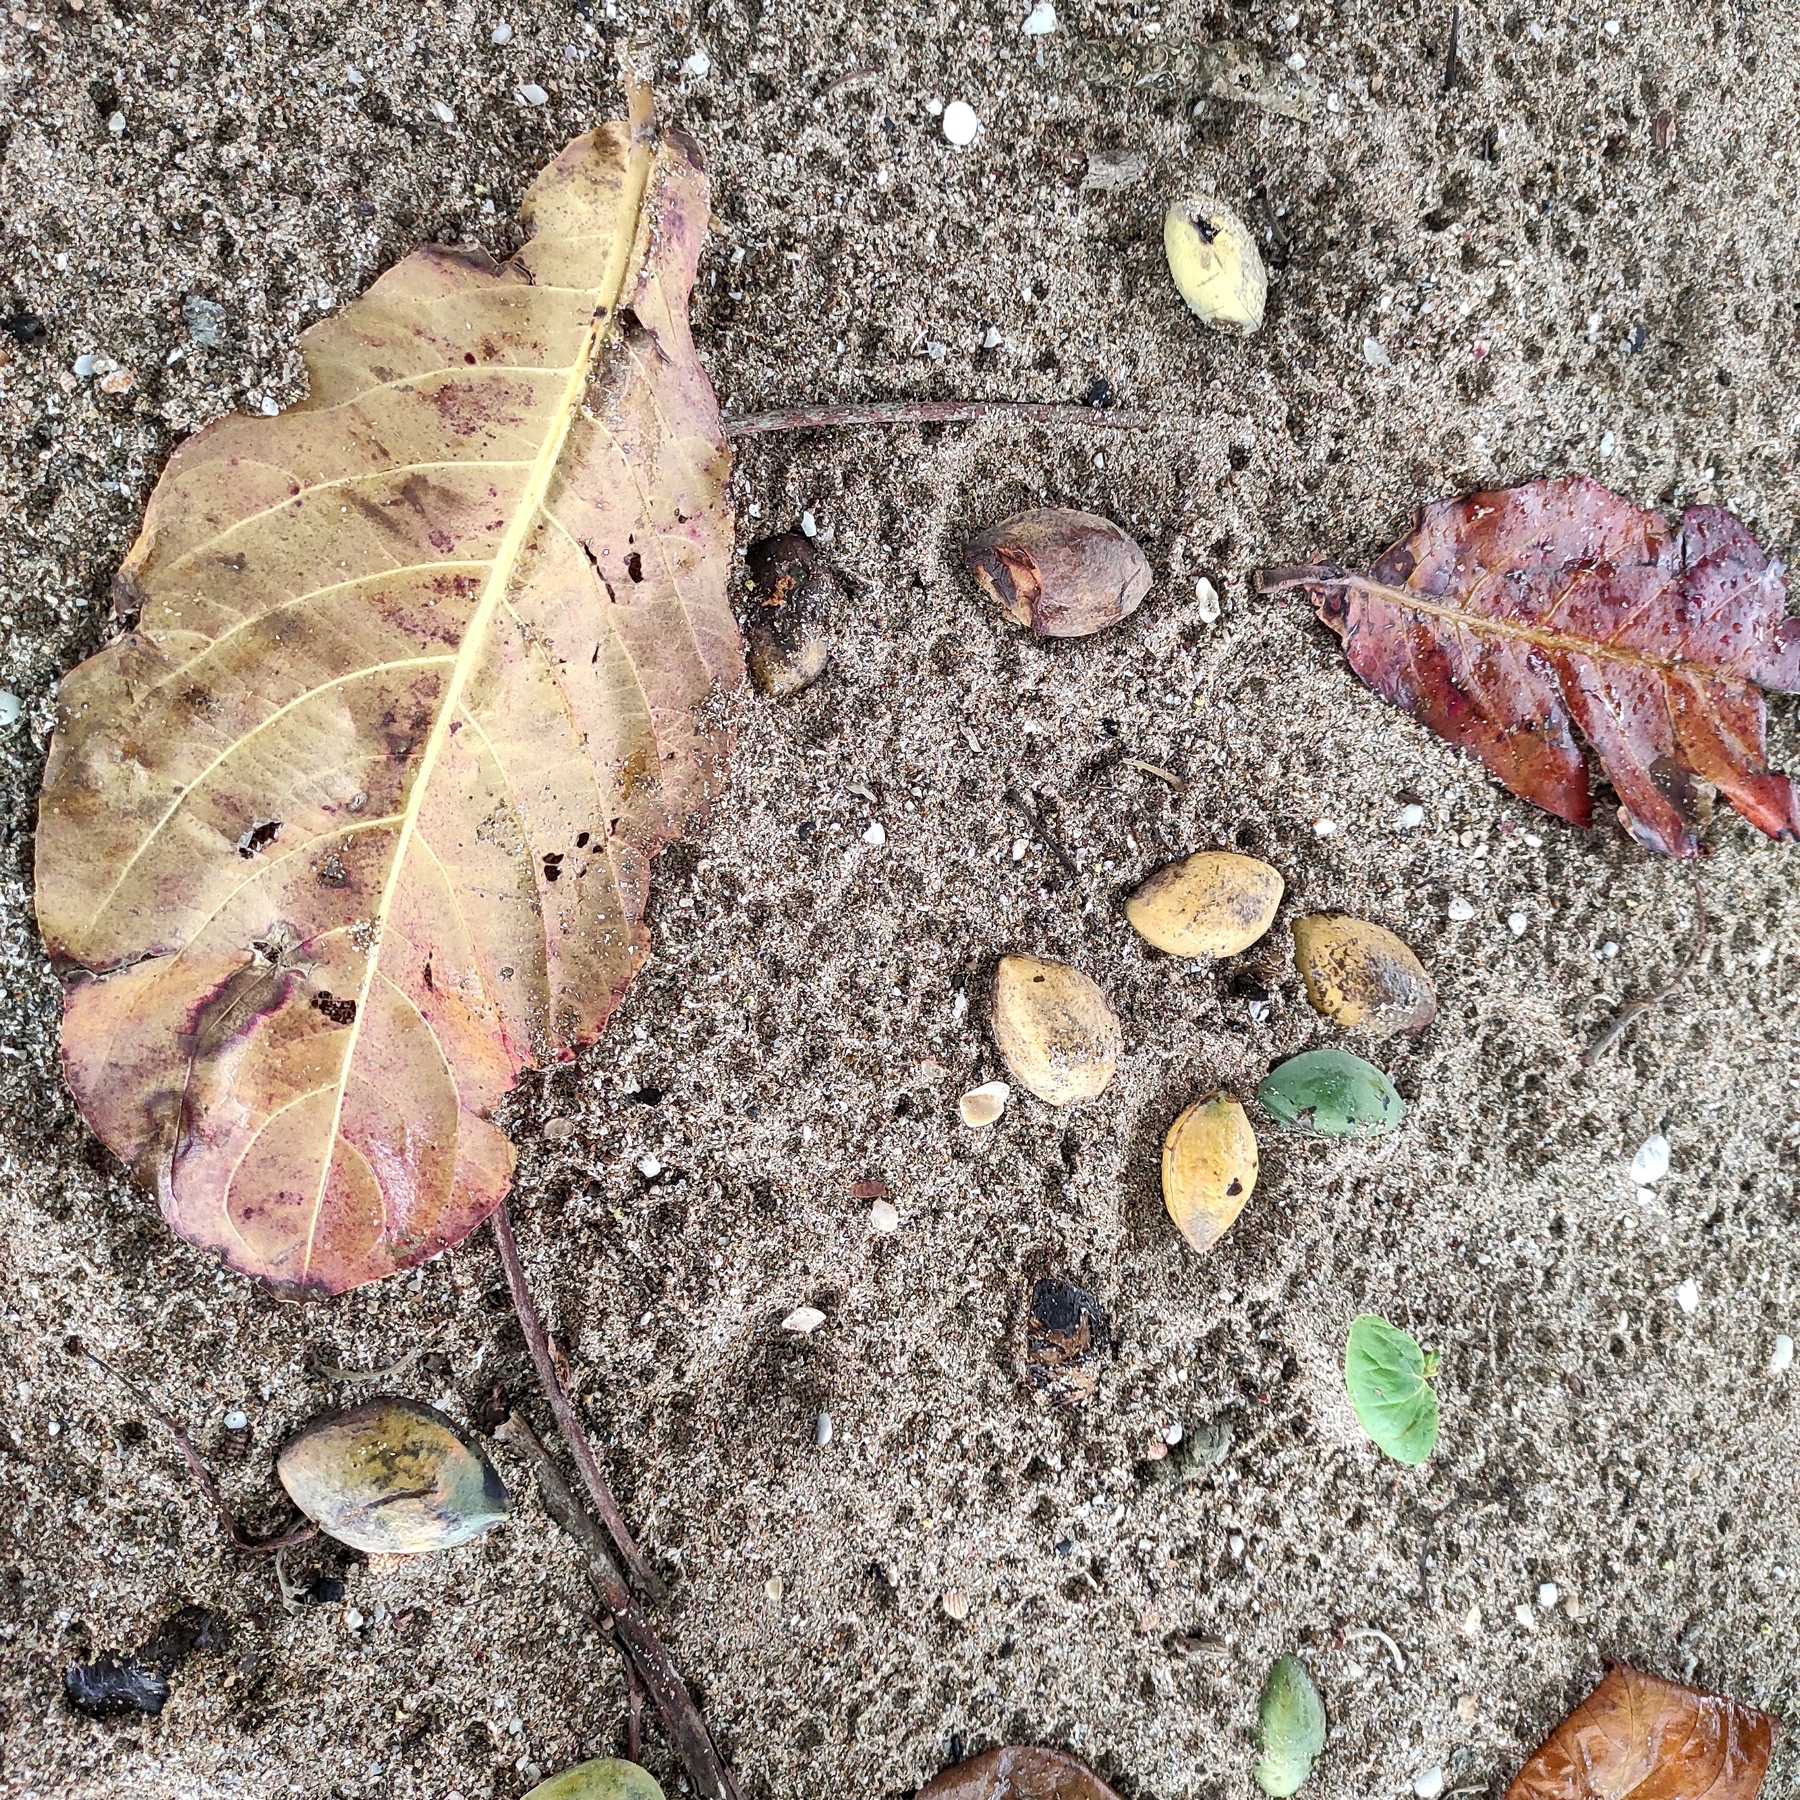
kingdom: Plantae
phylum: Tracheophyta
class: Magnoliopsida
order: Myrtales
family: Combretaceae
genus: Terminalia
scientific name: Terminalia catappa
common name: Tropical almond
